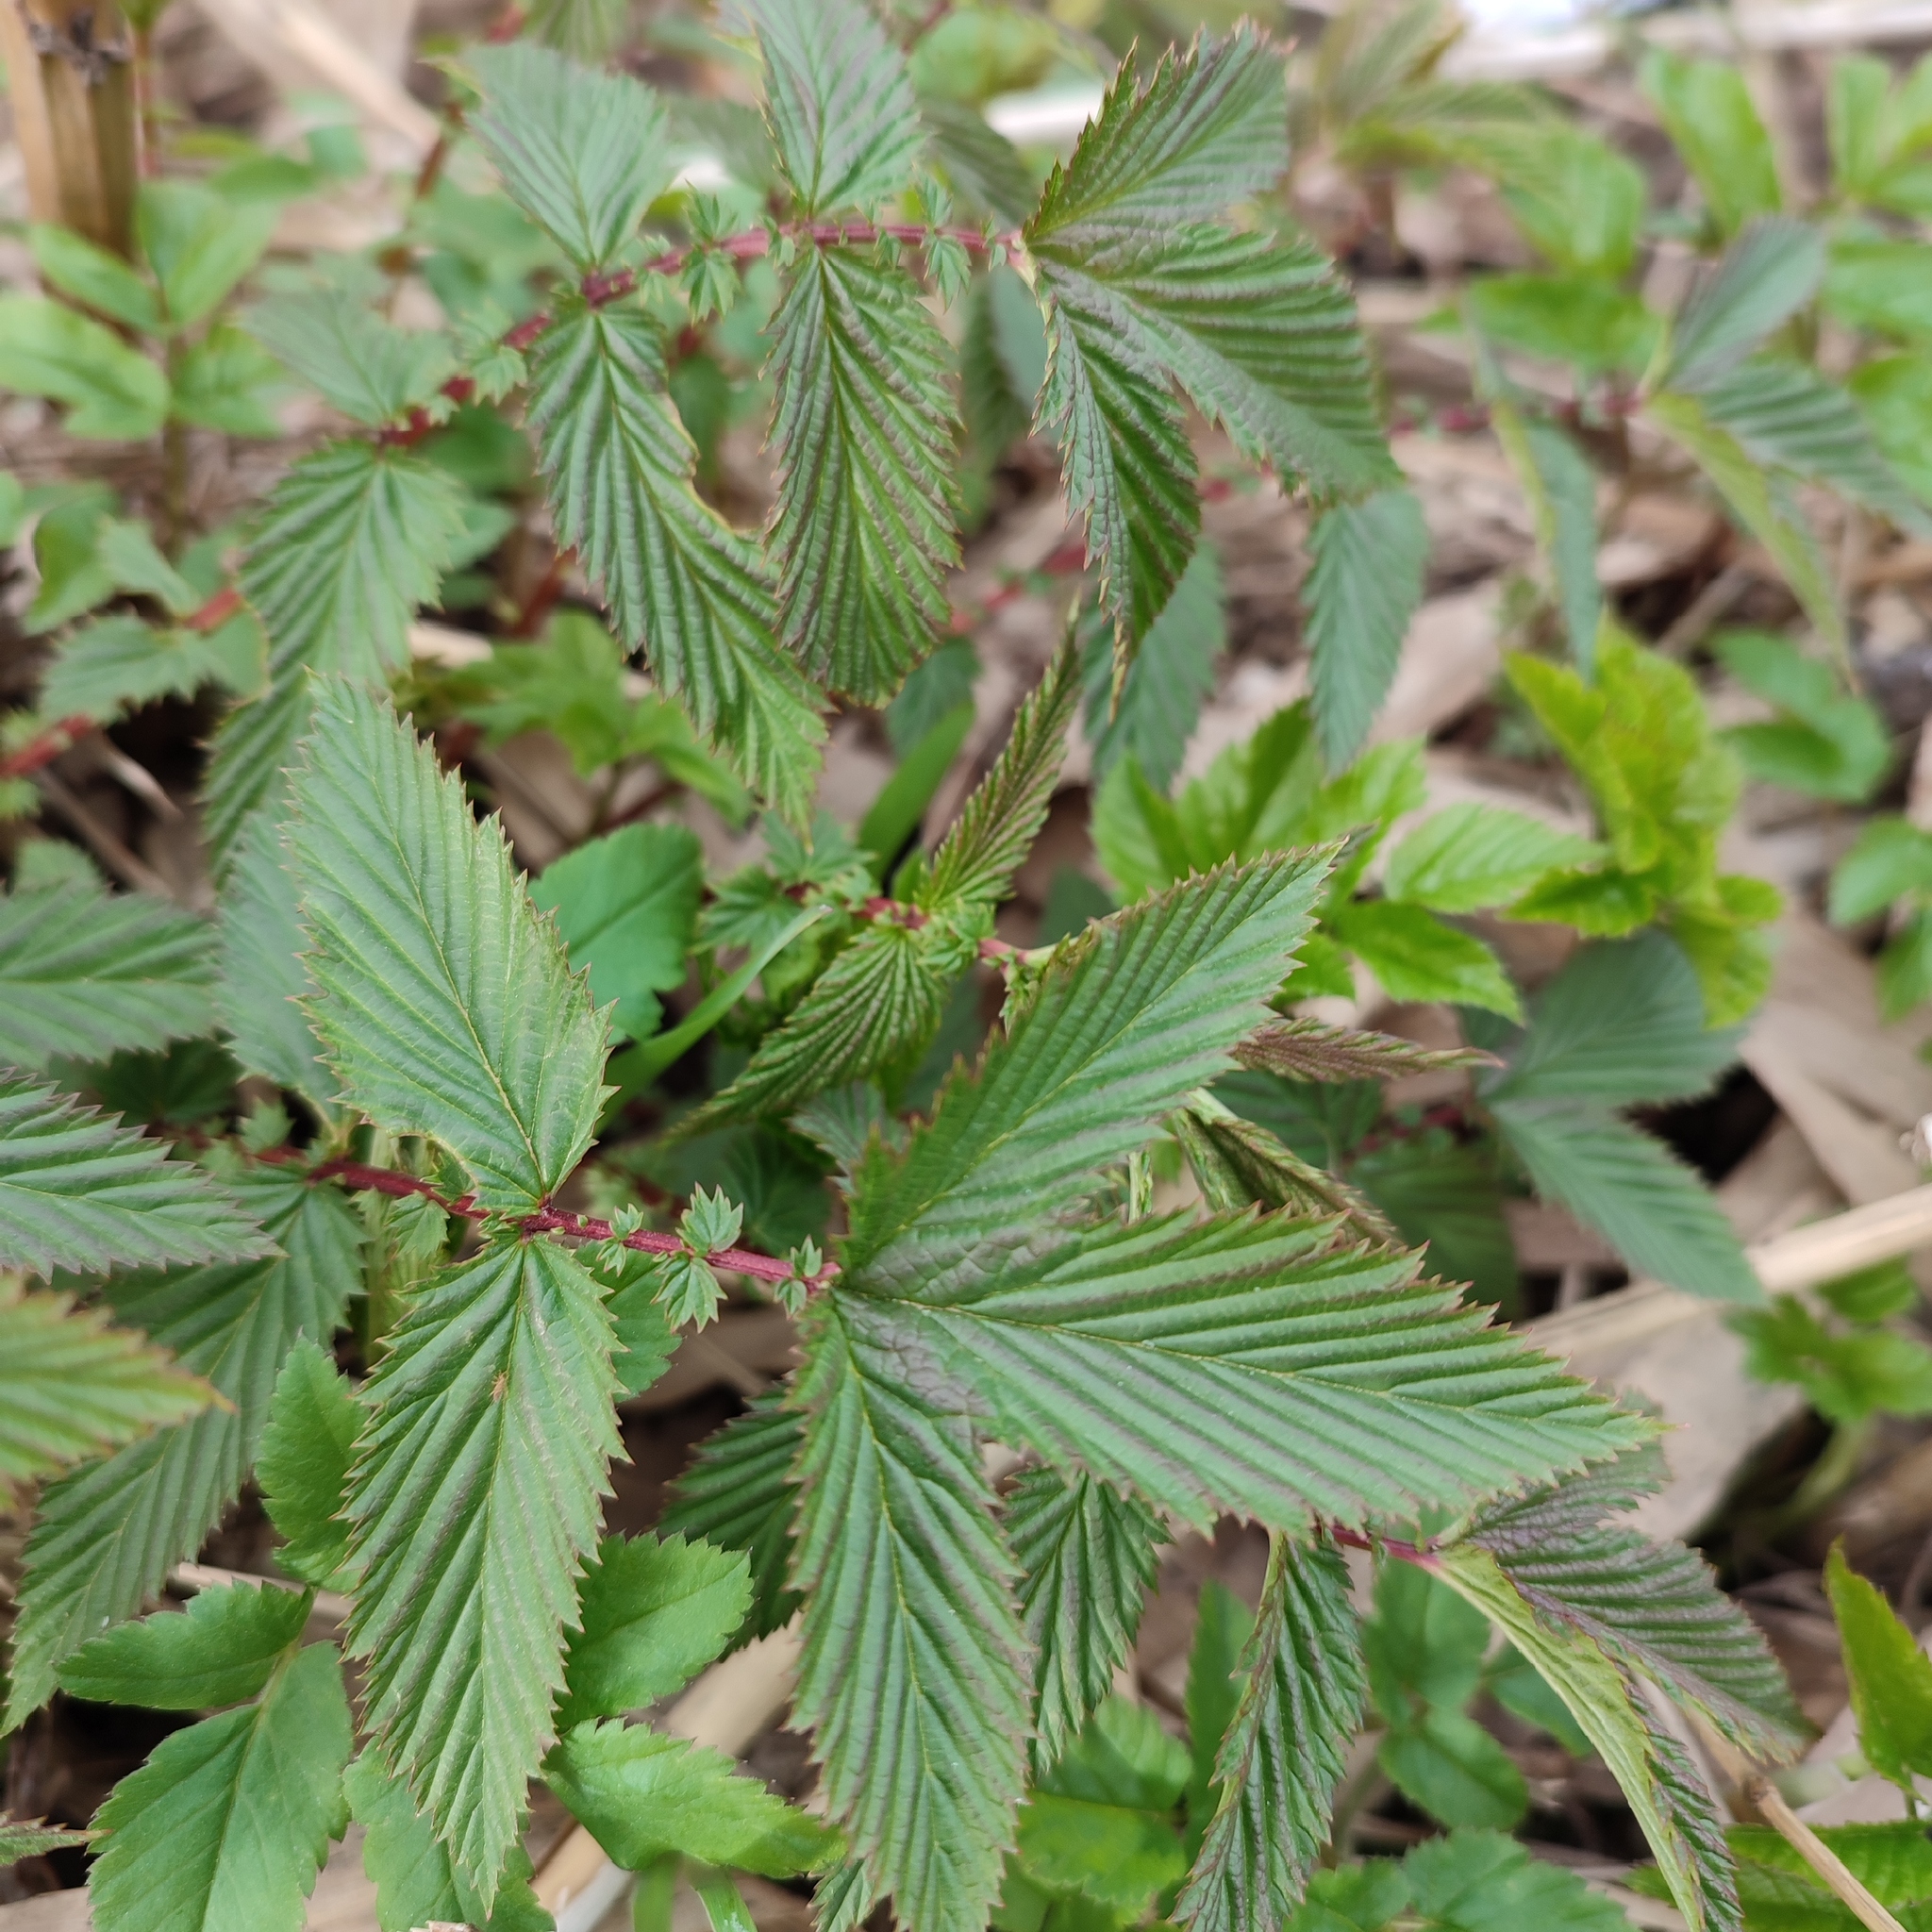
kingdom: Plantae
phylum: Tracheophyta
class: Magnoliopsida
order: Rosales
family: Rosaceae
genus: Filipendula
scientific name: Filipendula ulmaria
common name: Meadowsweet
